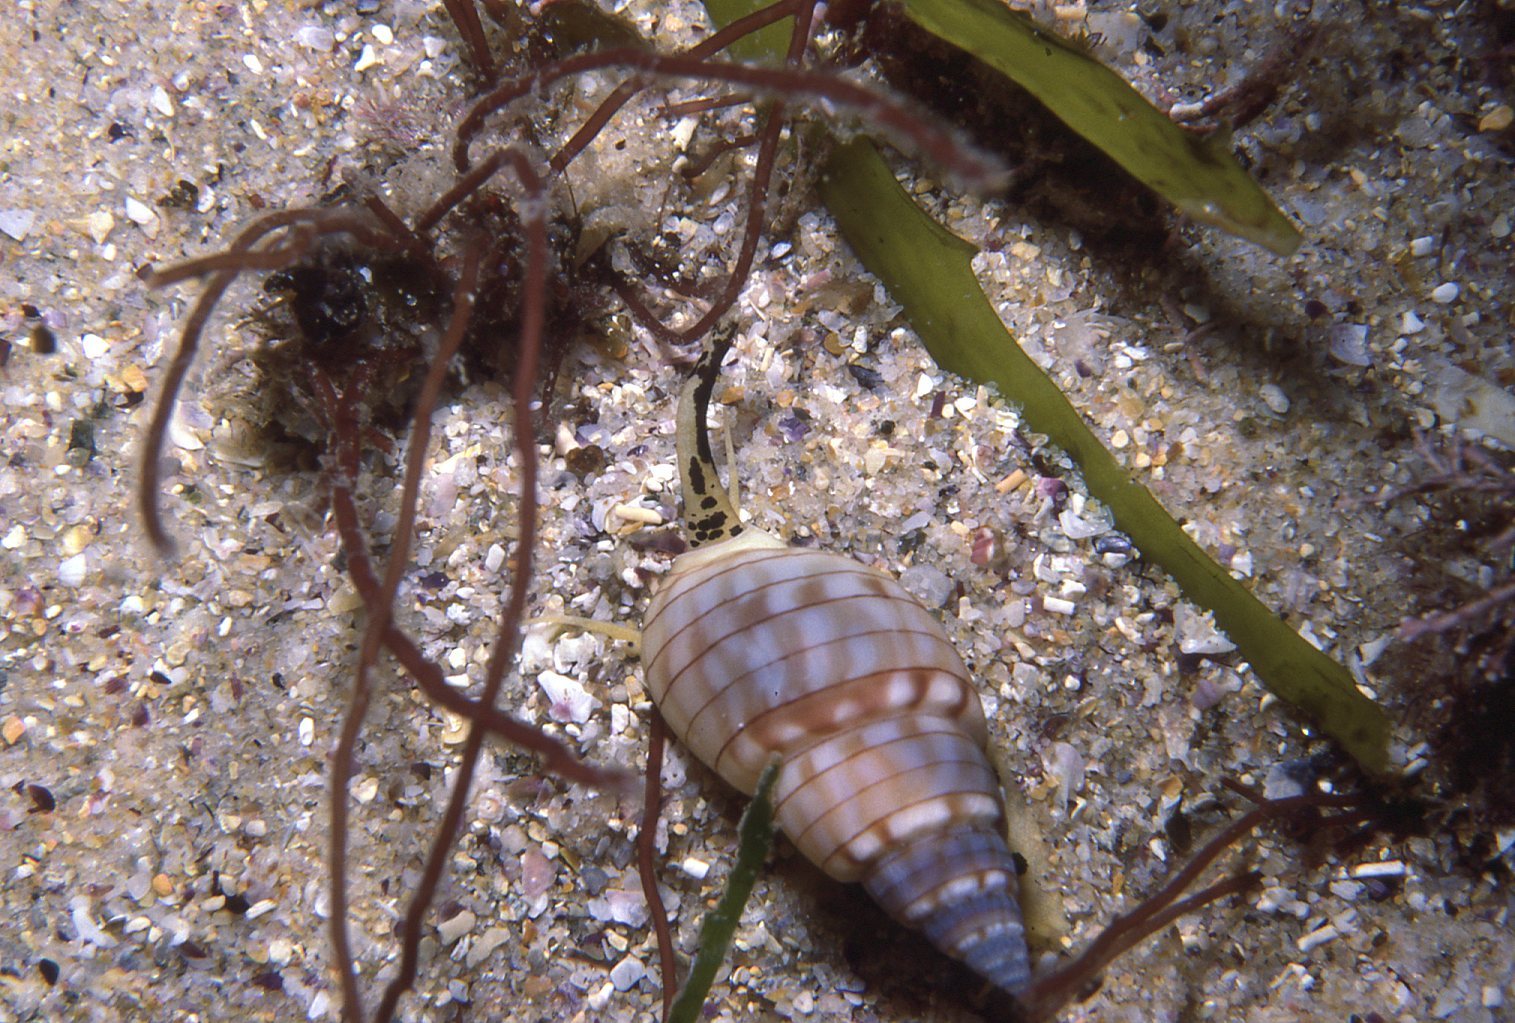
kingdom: Animalia
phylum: Mollusca
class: Gastropoda
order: Neogastropoda
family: Nassariidae
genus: Nassarius
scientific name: Nassarius particeps
